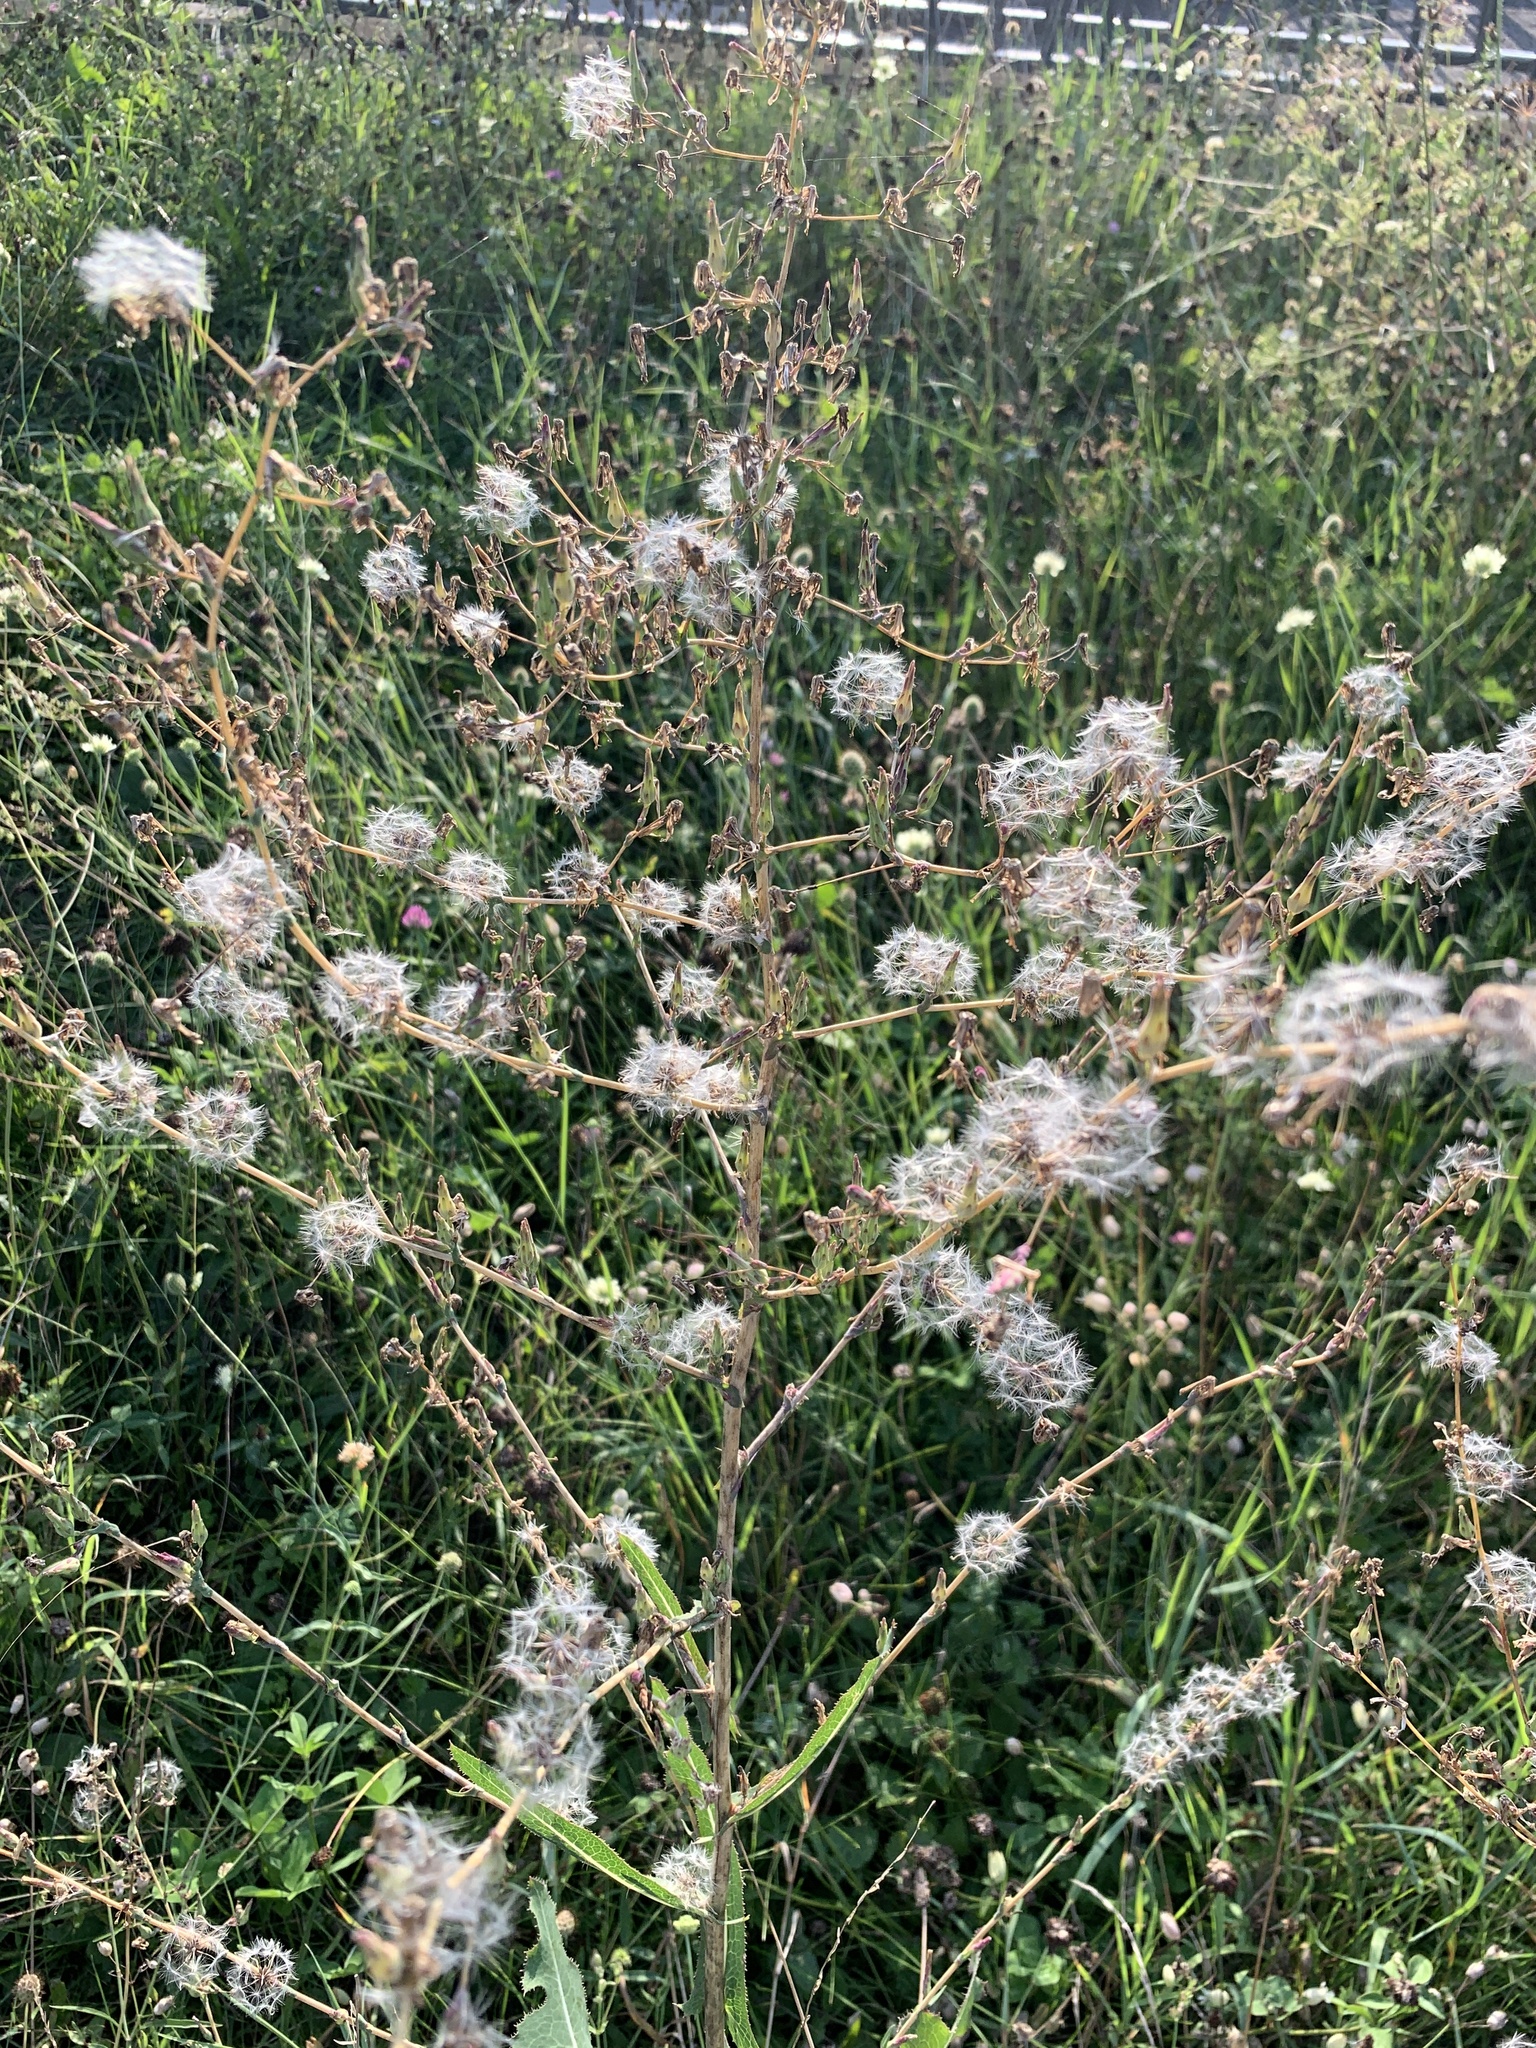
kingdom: Plantae
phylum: Tracheophyta
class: Magnoliopsida
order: Asterales
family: Asteraceae
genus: Lactuca
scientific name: Lactuca serriola
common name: Prickly lettuce
